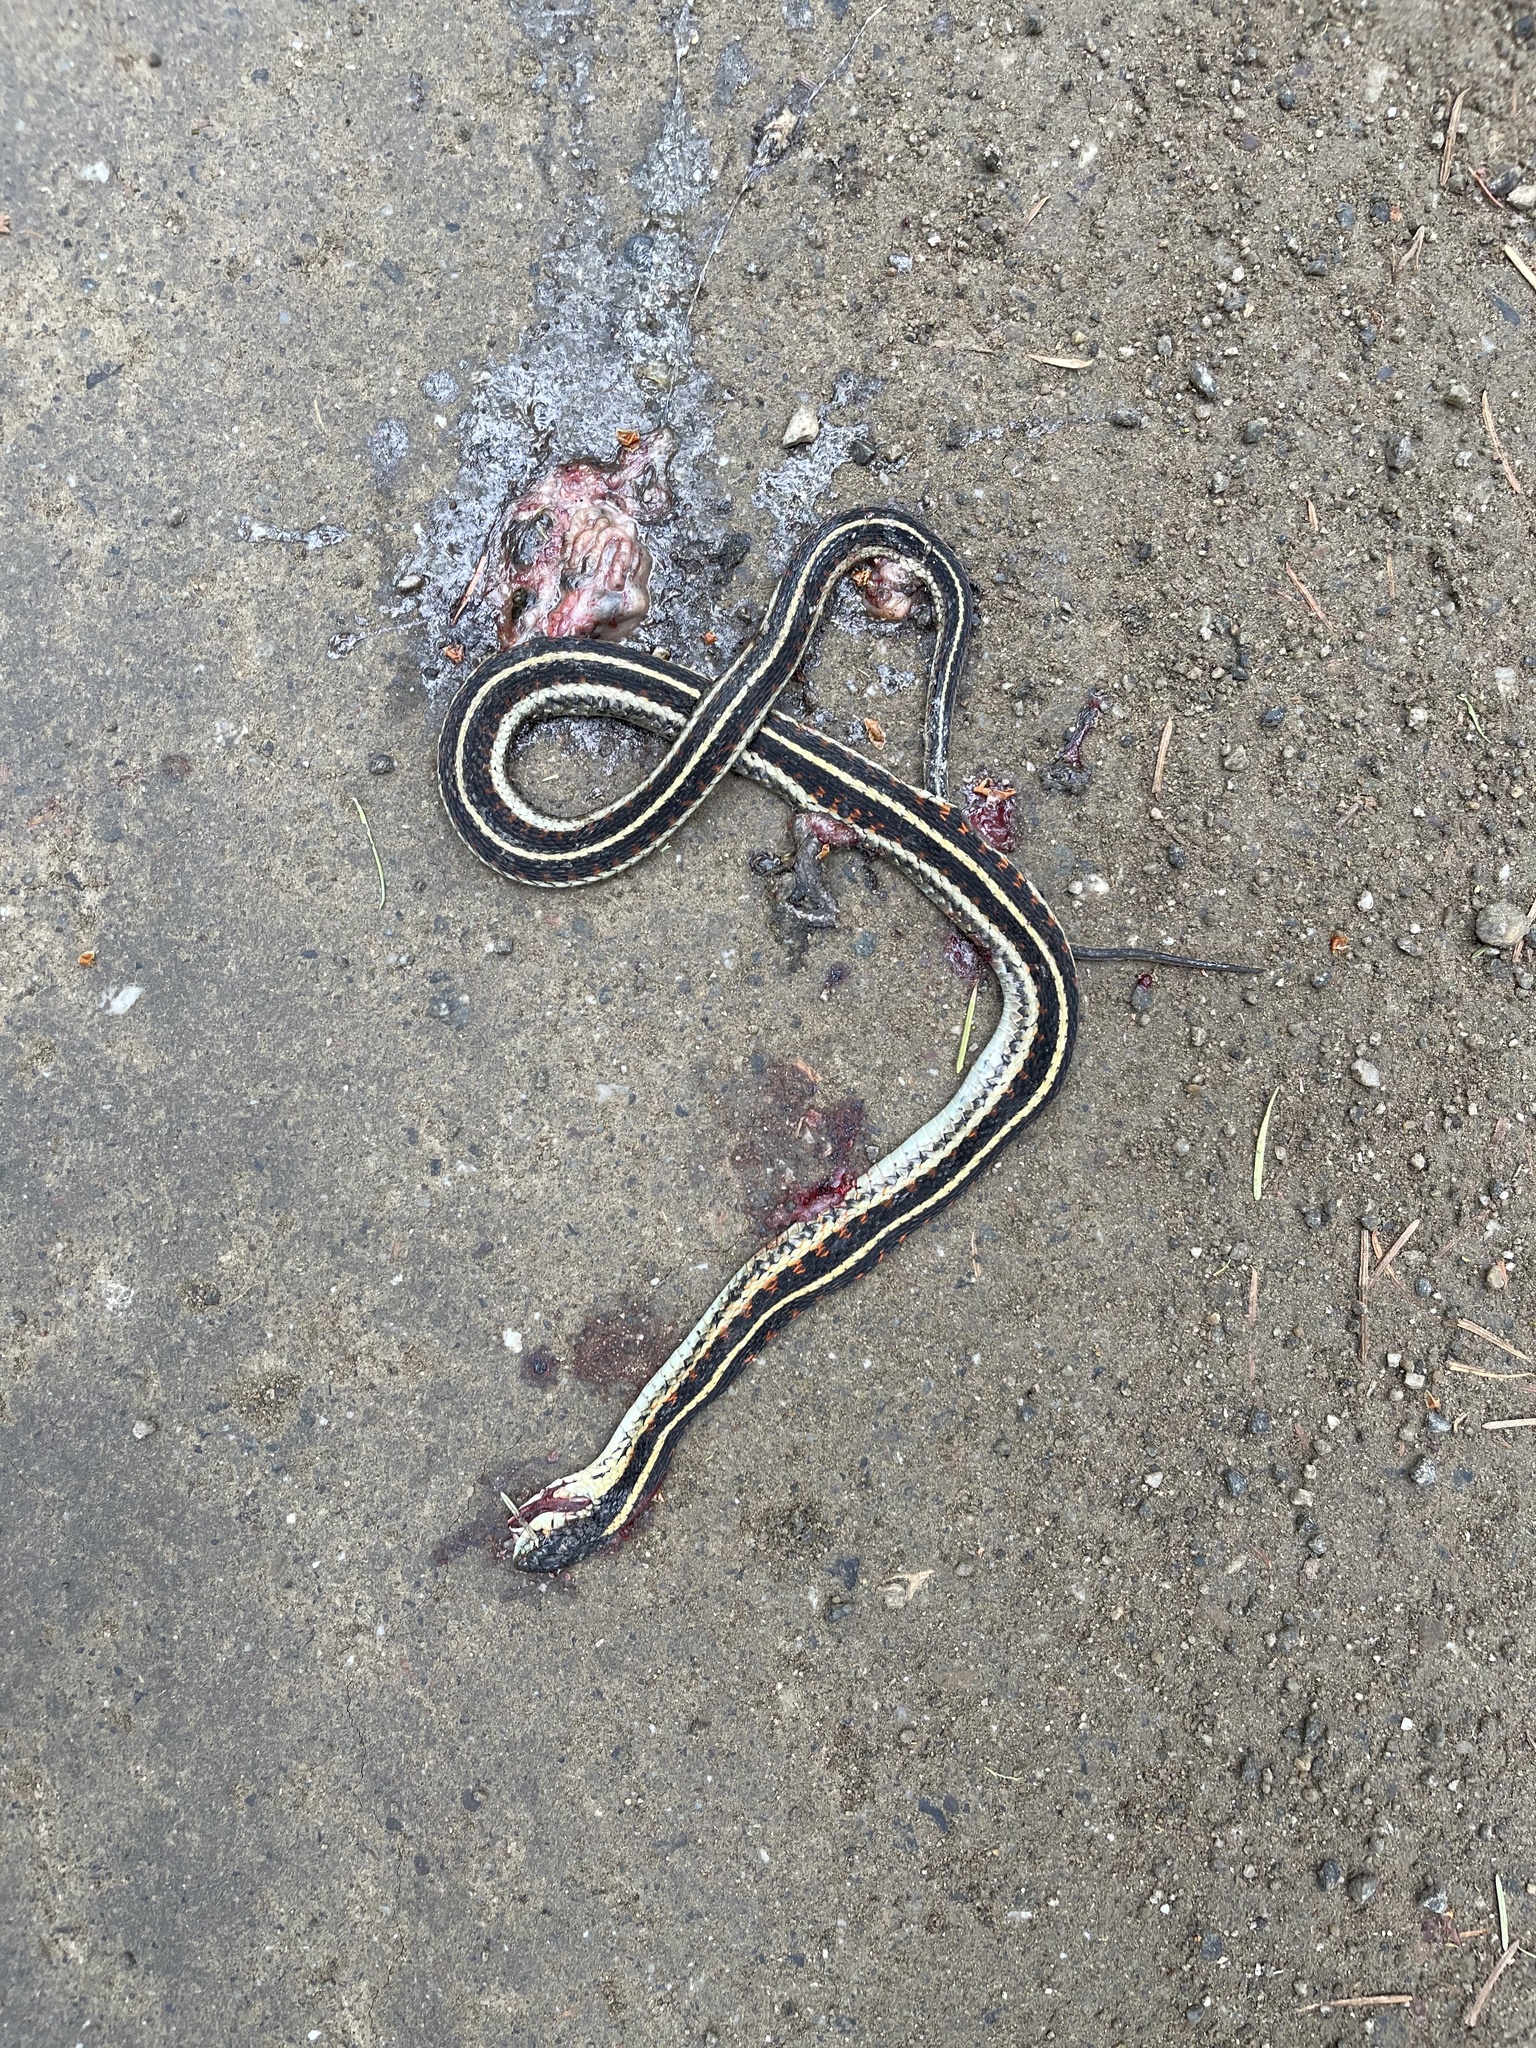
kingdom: Animalia
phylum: Chordata
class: Squamata
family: Colubridae
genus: Thamnophis
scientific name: Thamnophis sirtalis
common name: Common garter snake
